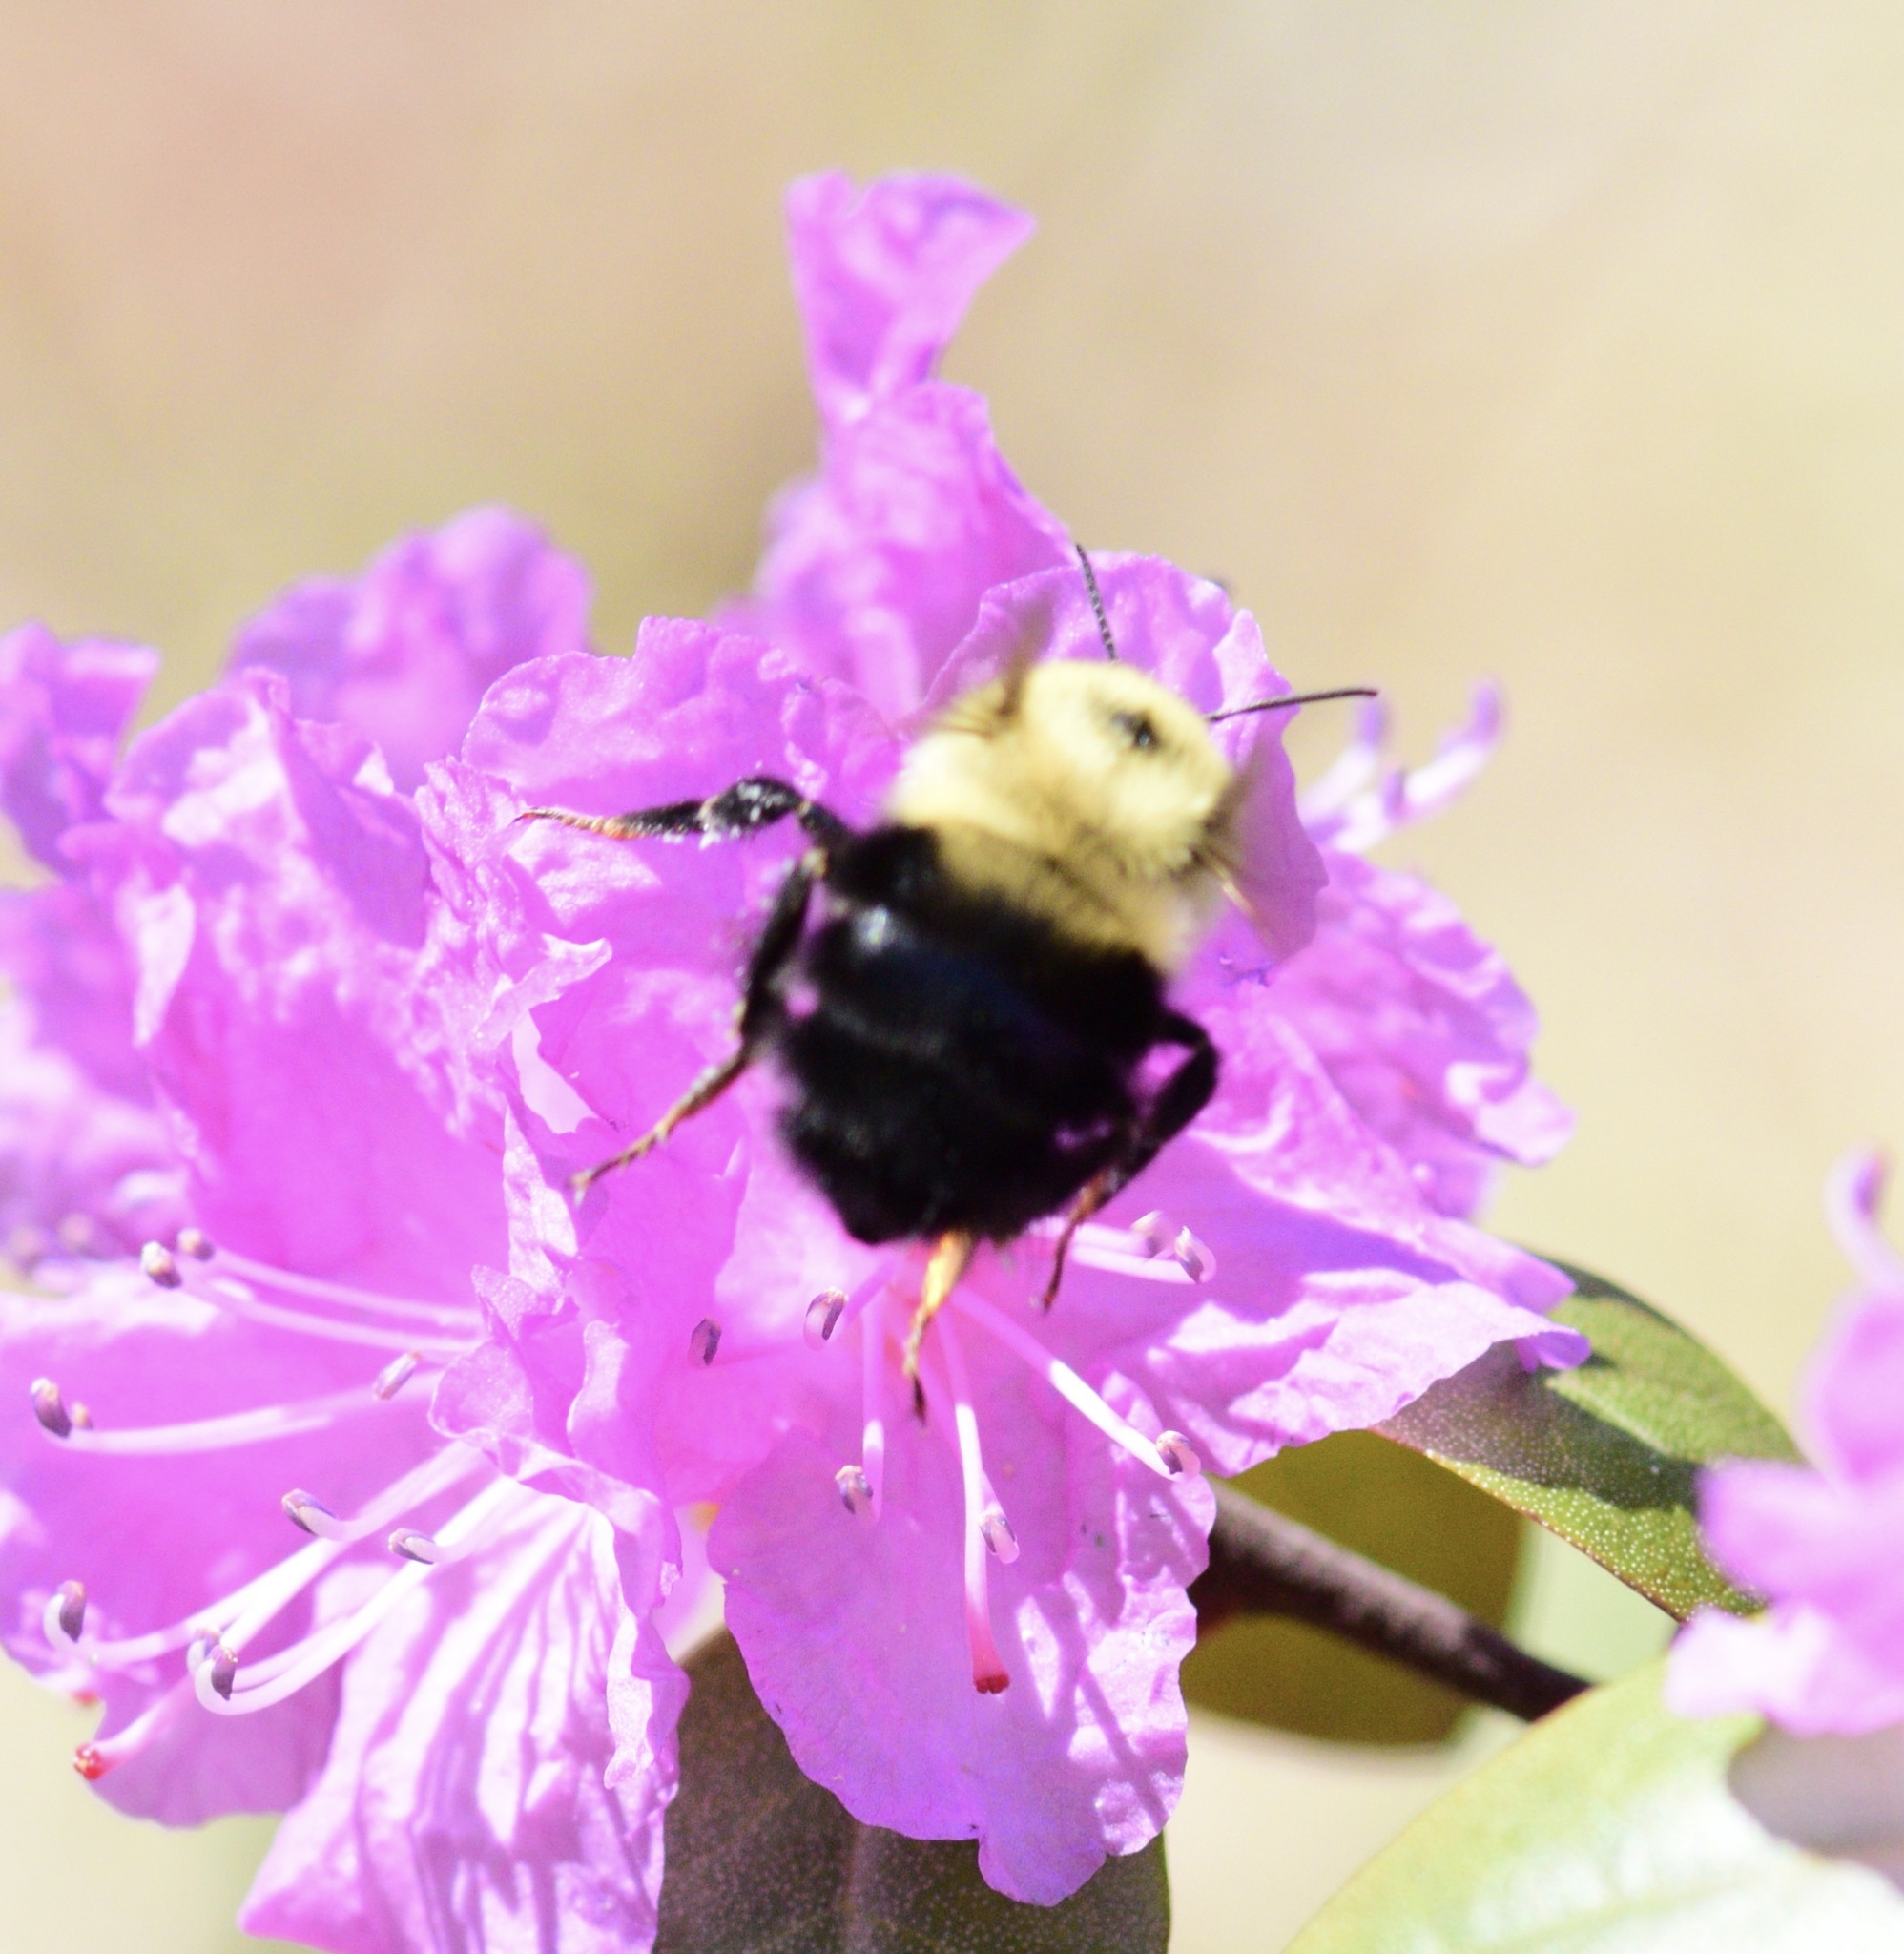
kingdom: Animalia
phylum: Arthropoda
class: Insecta
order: Hymenoptera
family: Apidae
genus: Bombus
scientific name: Bombus bimaculatus
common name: Two-spotted bumble bee
